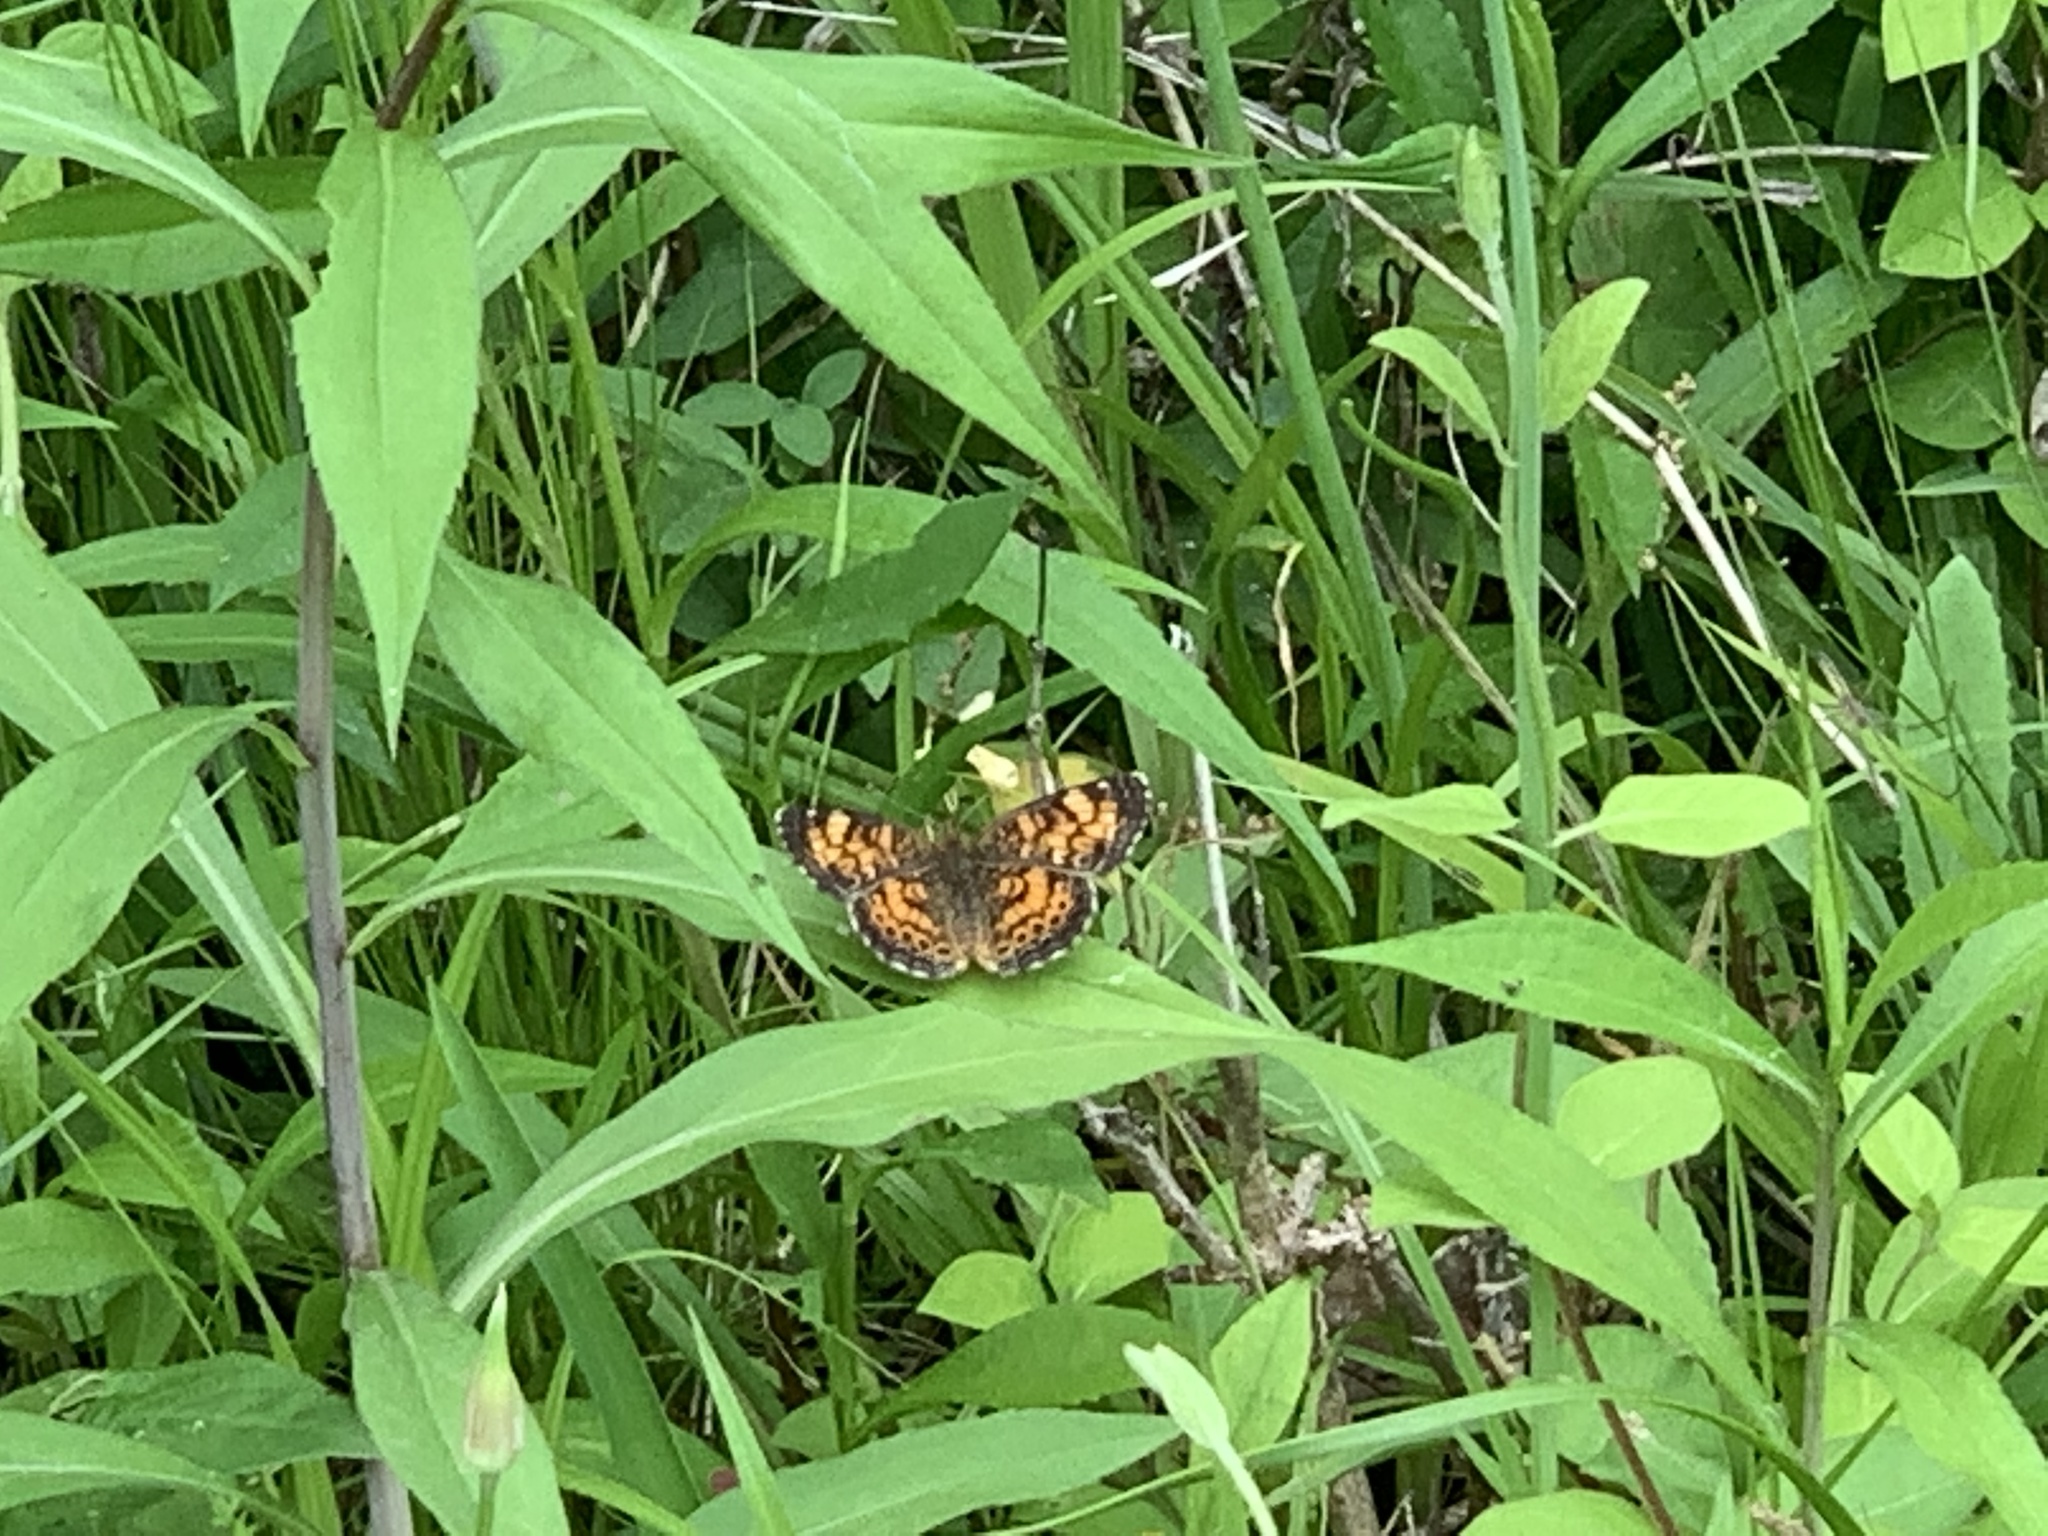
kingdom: Animalia
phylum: Arthropoda
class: Insecta
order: Lepidoptera
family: Nymphalidae
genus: Phyciodes
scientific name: Phyciodes tharos
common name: Pearl crescent
